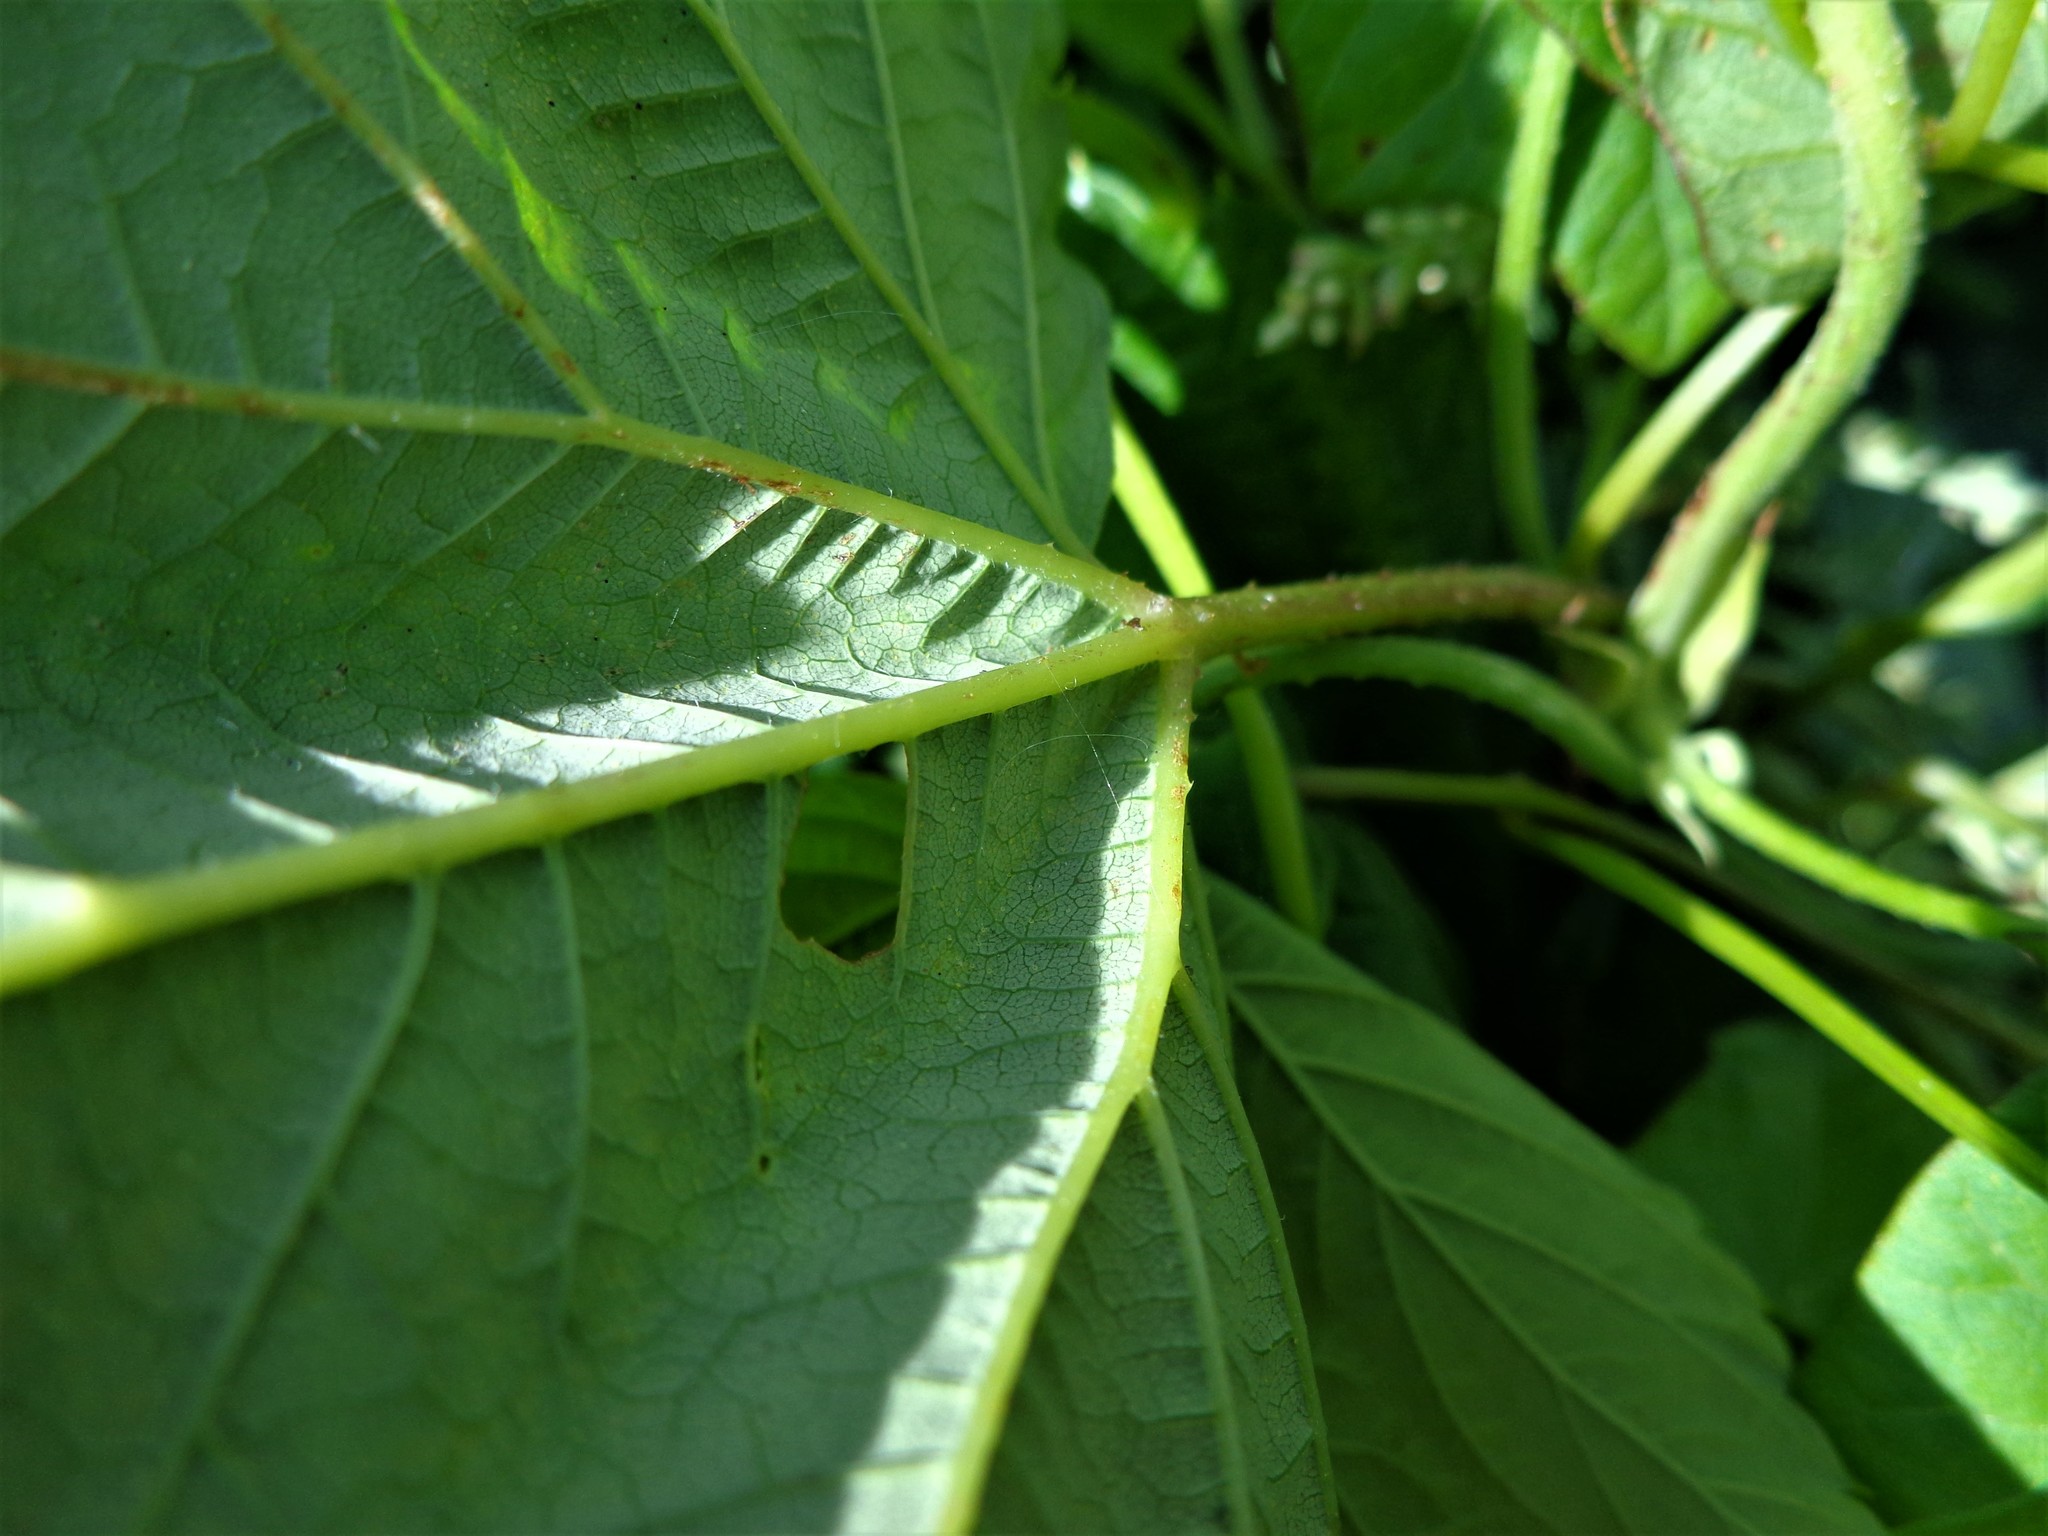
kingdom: Plantae
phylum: Tracheophyta
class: Magnoliopsida
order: Rosales
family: Cannabaceae
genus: Humulus
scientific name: Humulus lupulus
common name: Hop
